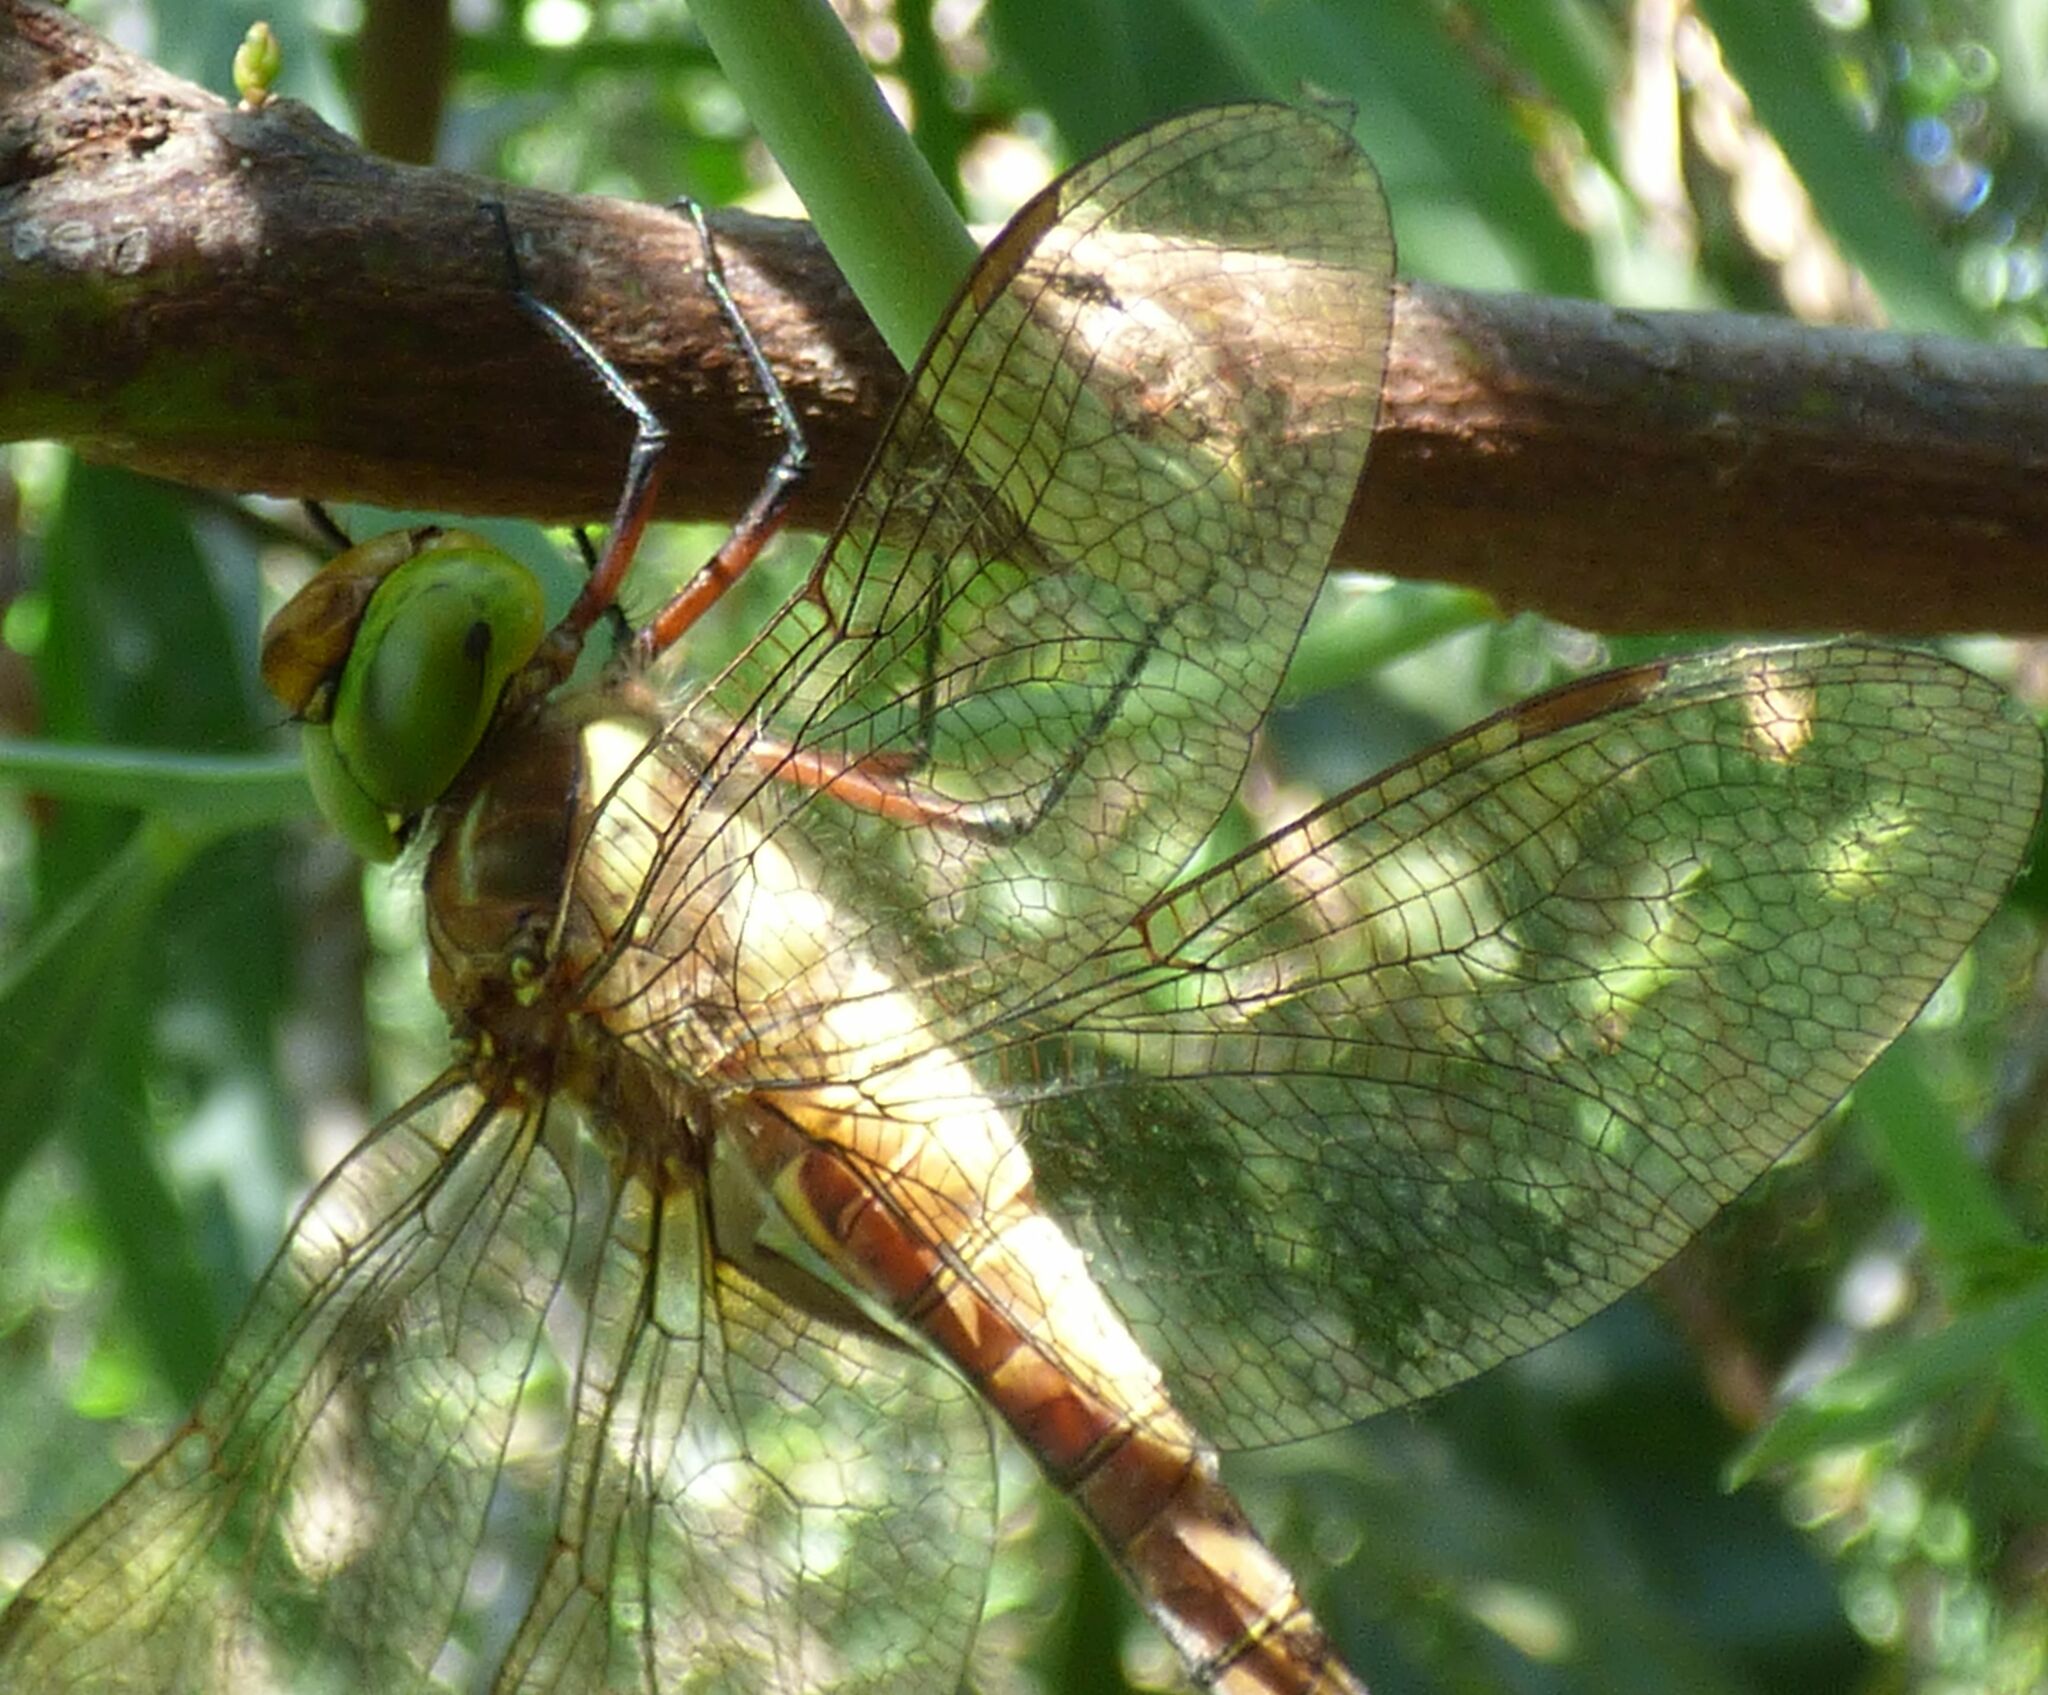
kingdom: Animalia
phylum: Arthropoda
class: Insecta
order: Odonata
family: Aeshnidae
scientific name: Aeshnidae
